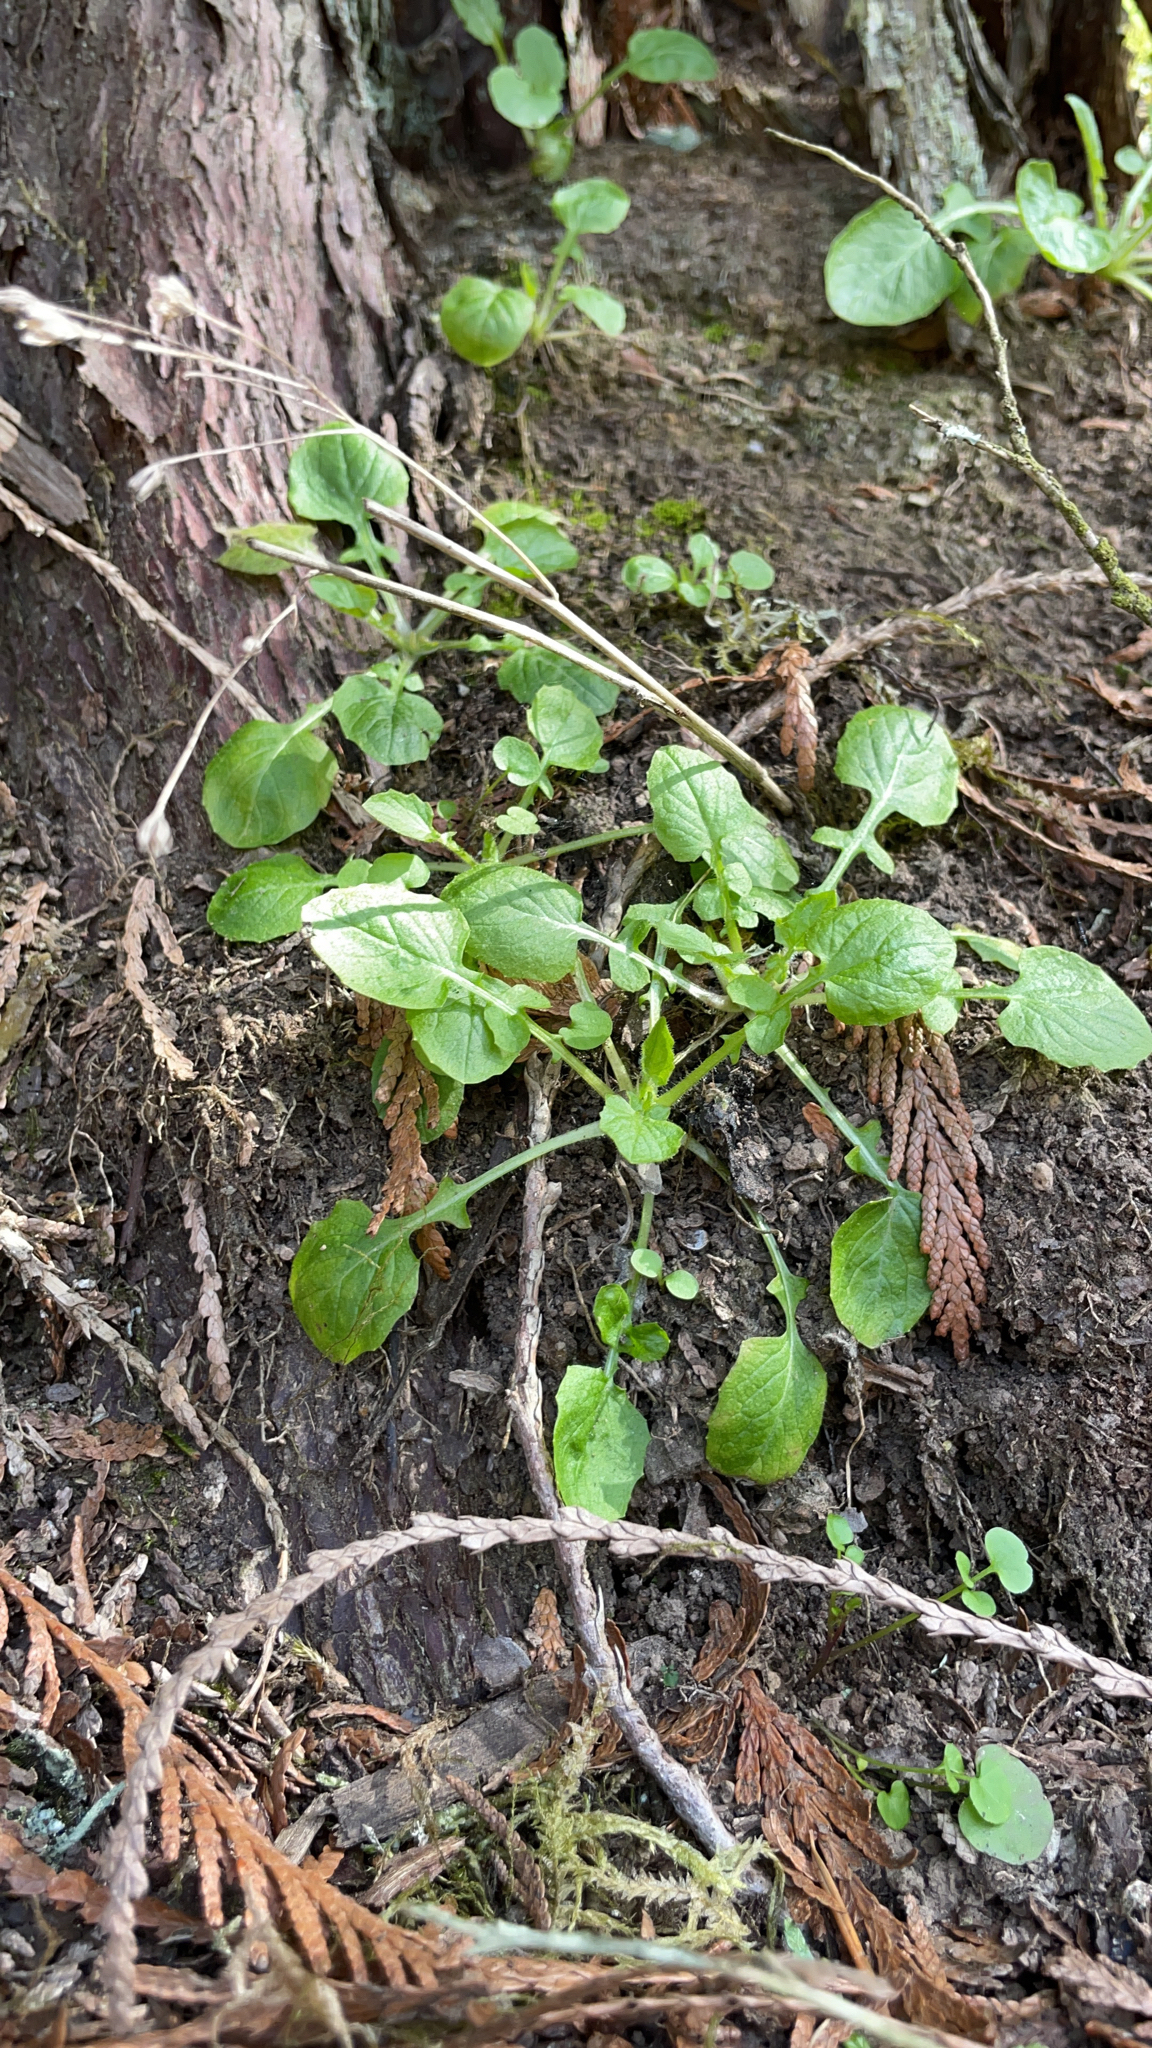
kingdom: Plantae
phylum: Tracheophyta
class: Magnoliopsida
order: Asterales
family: Asteraceae
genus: Lapsana
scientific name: Lapsana communis
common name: Nipplewort
